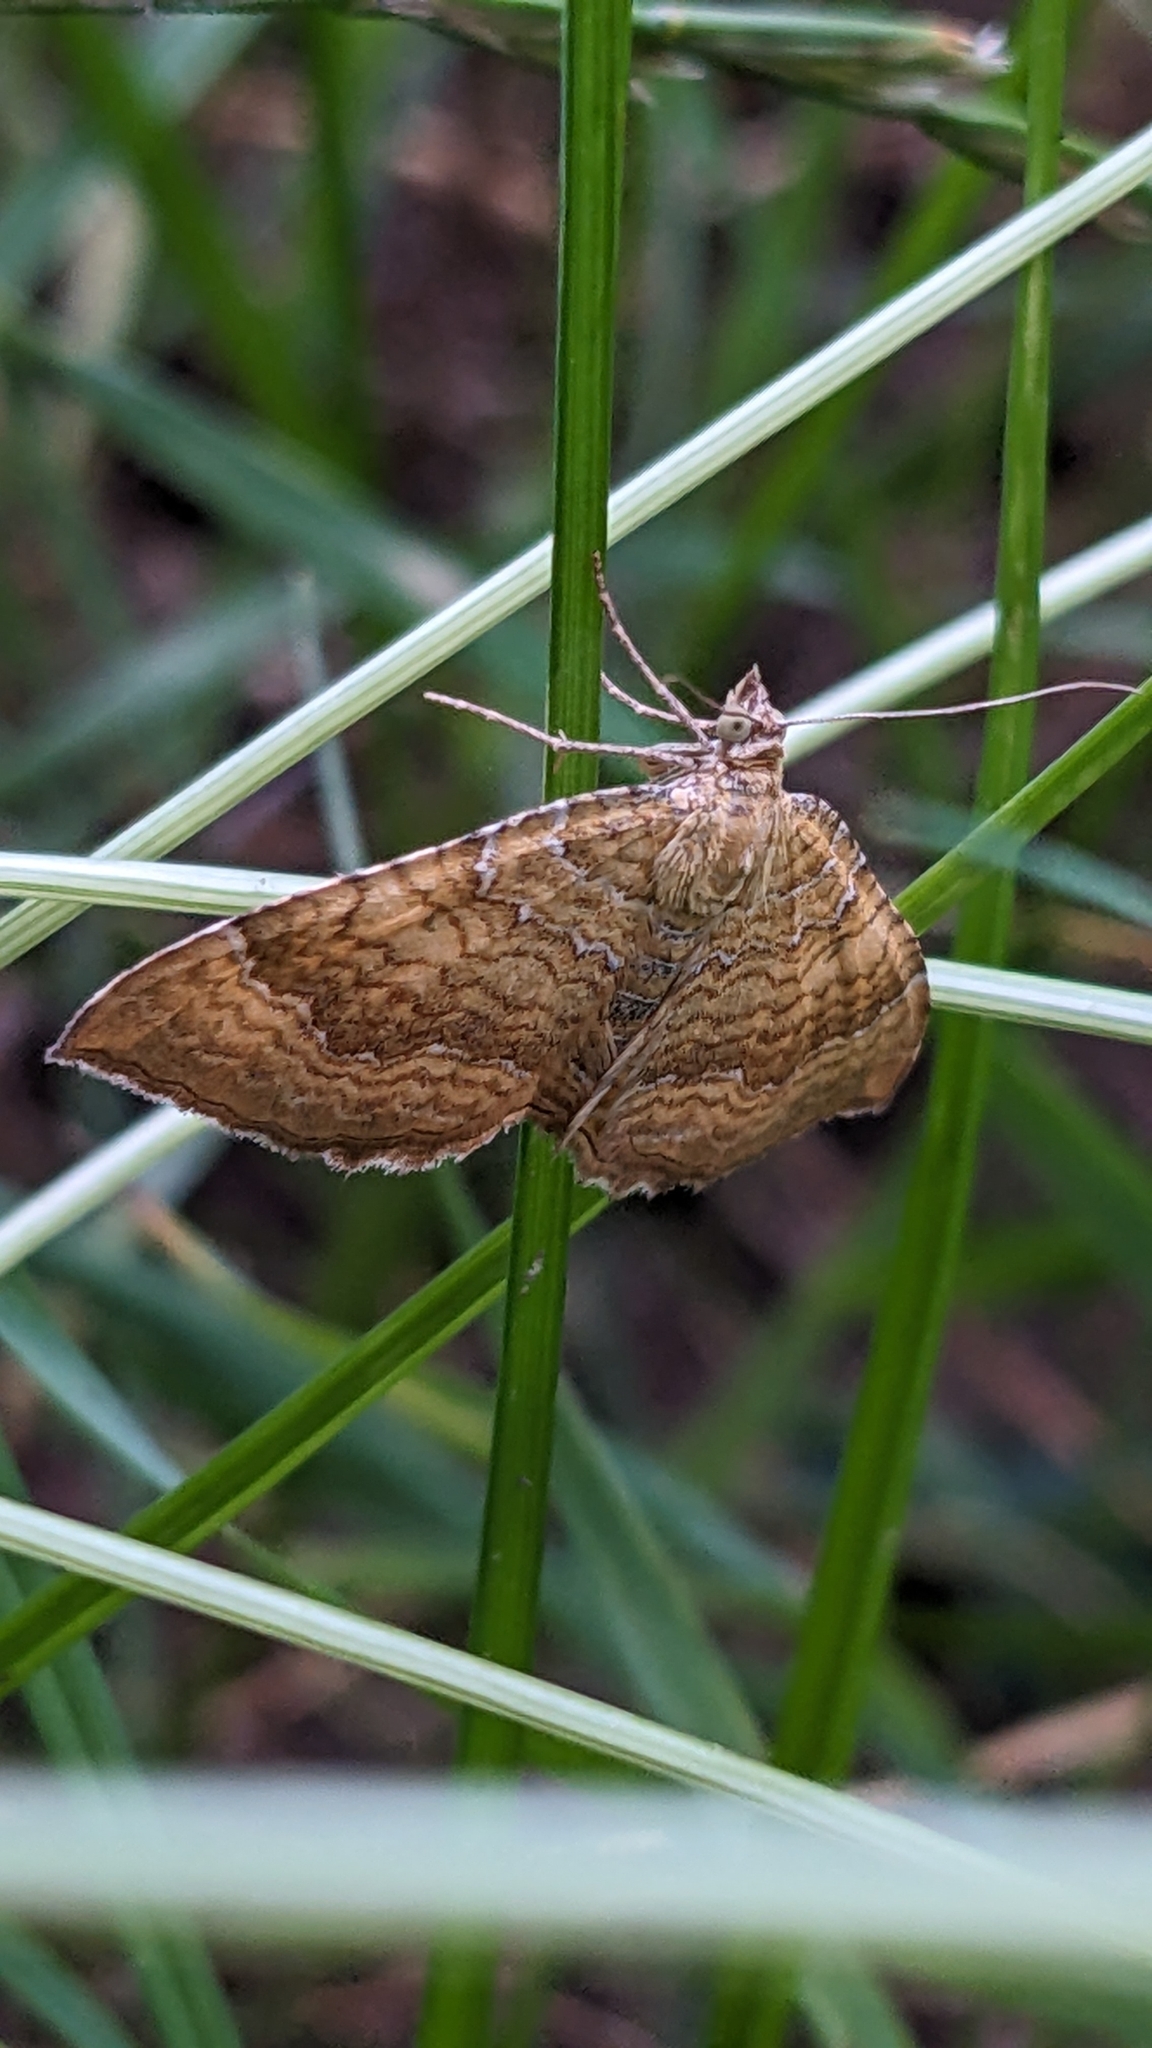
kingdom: Animalia
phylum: Arthropoda
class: Insecta
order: Lepidoptera
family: Geometridae
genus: Camptogramma
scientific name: Camptogramma bilineata
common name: Yellow shell
